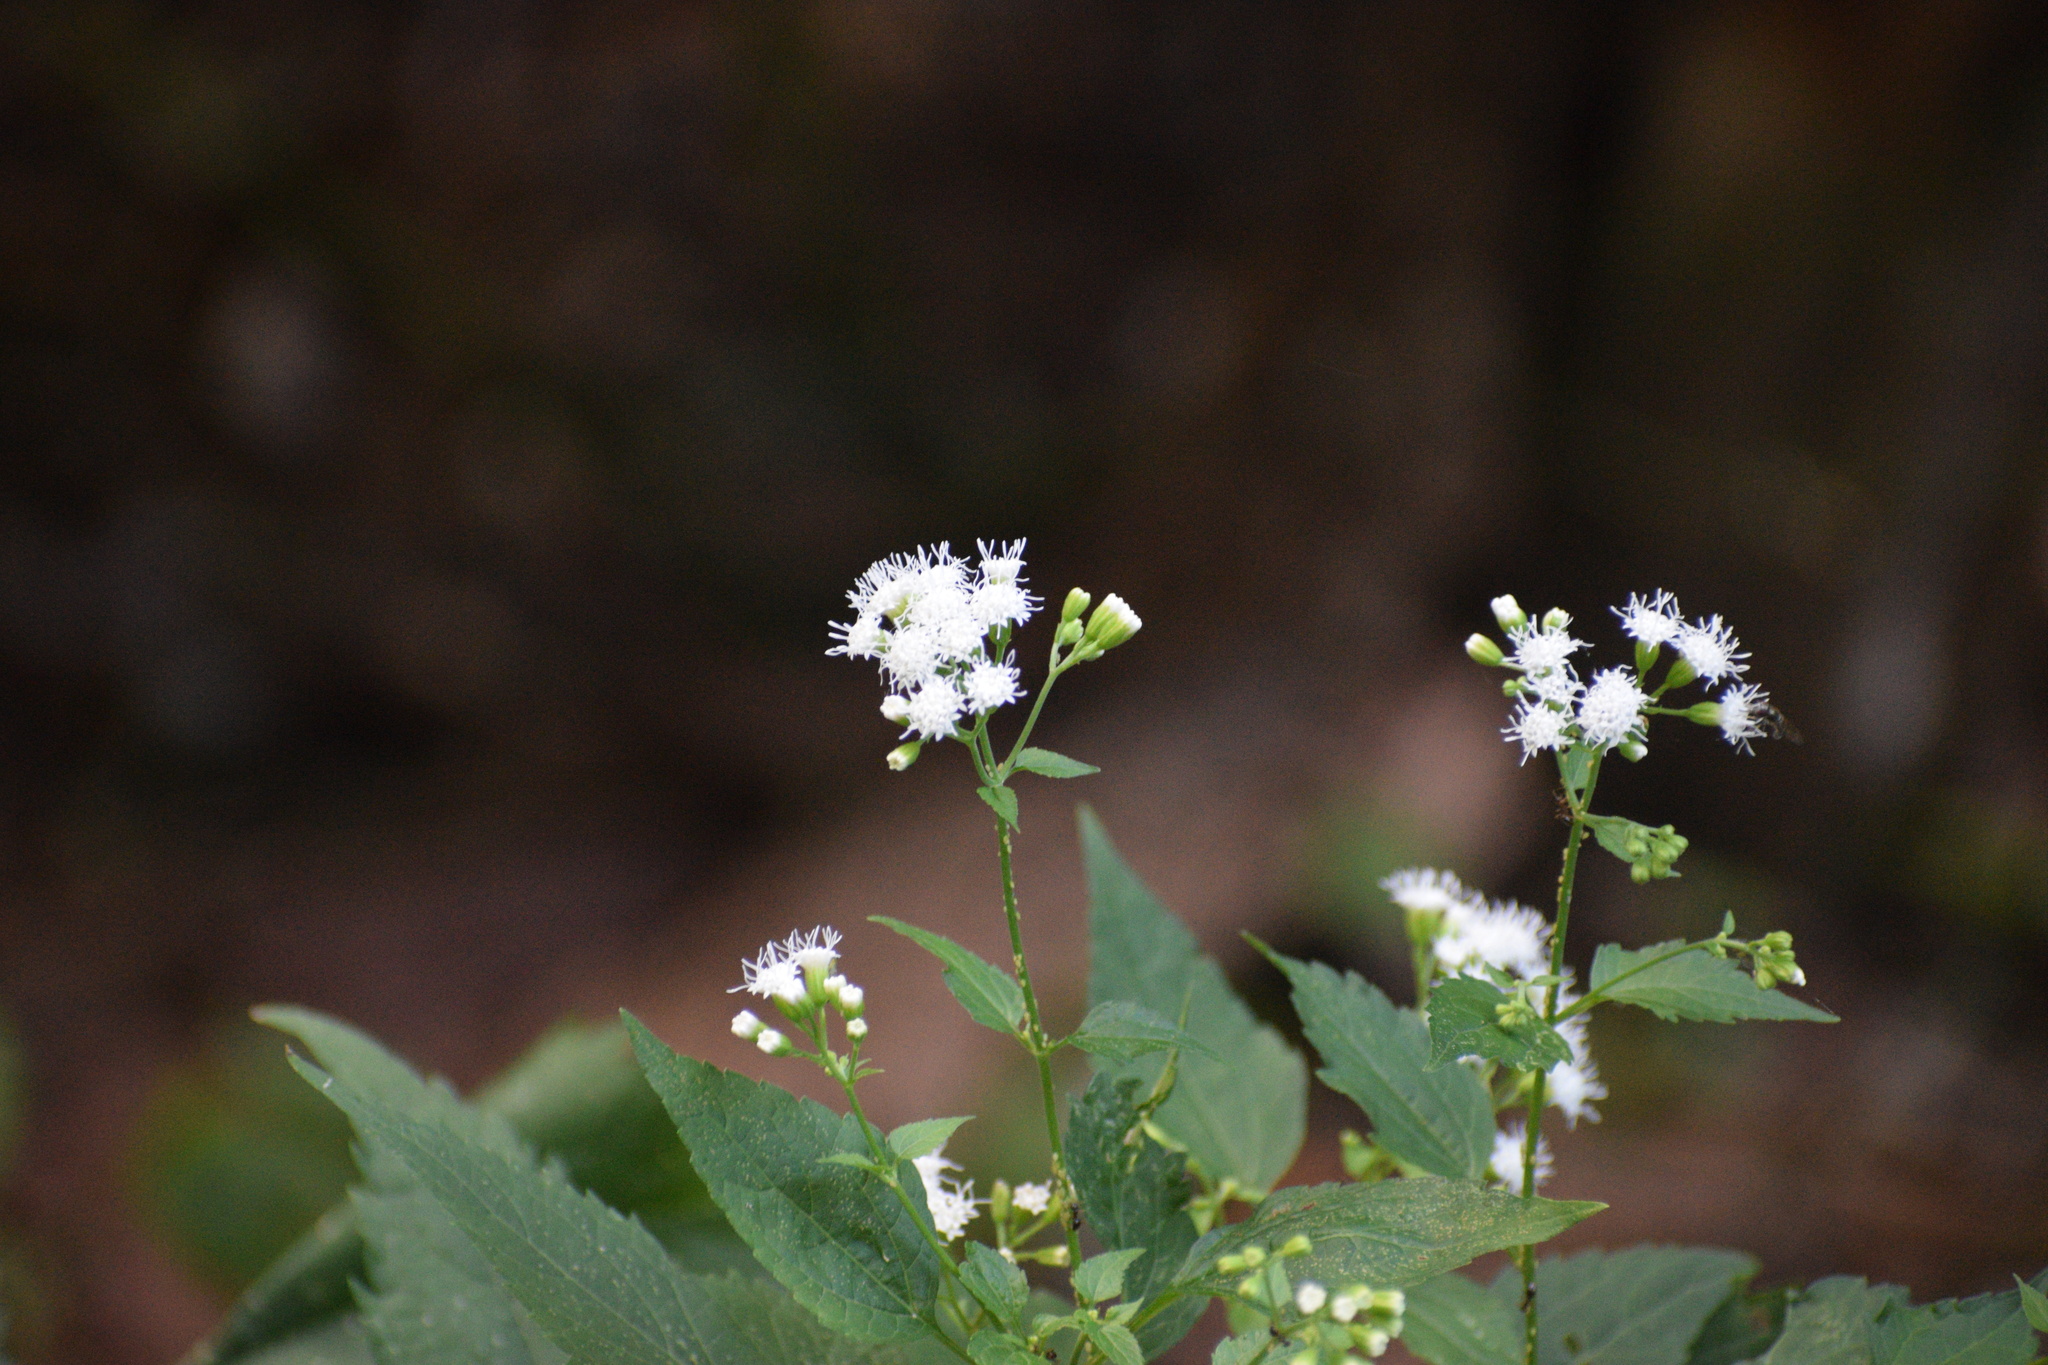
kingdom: Plantae
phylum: Tracheophyta
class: Magnoliopsida
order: Asterales
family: Asteraceae
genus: Ageratina
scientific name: Ageratina altissima
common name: White snakeroot
